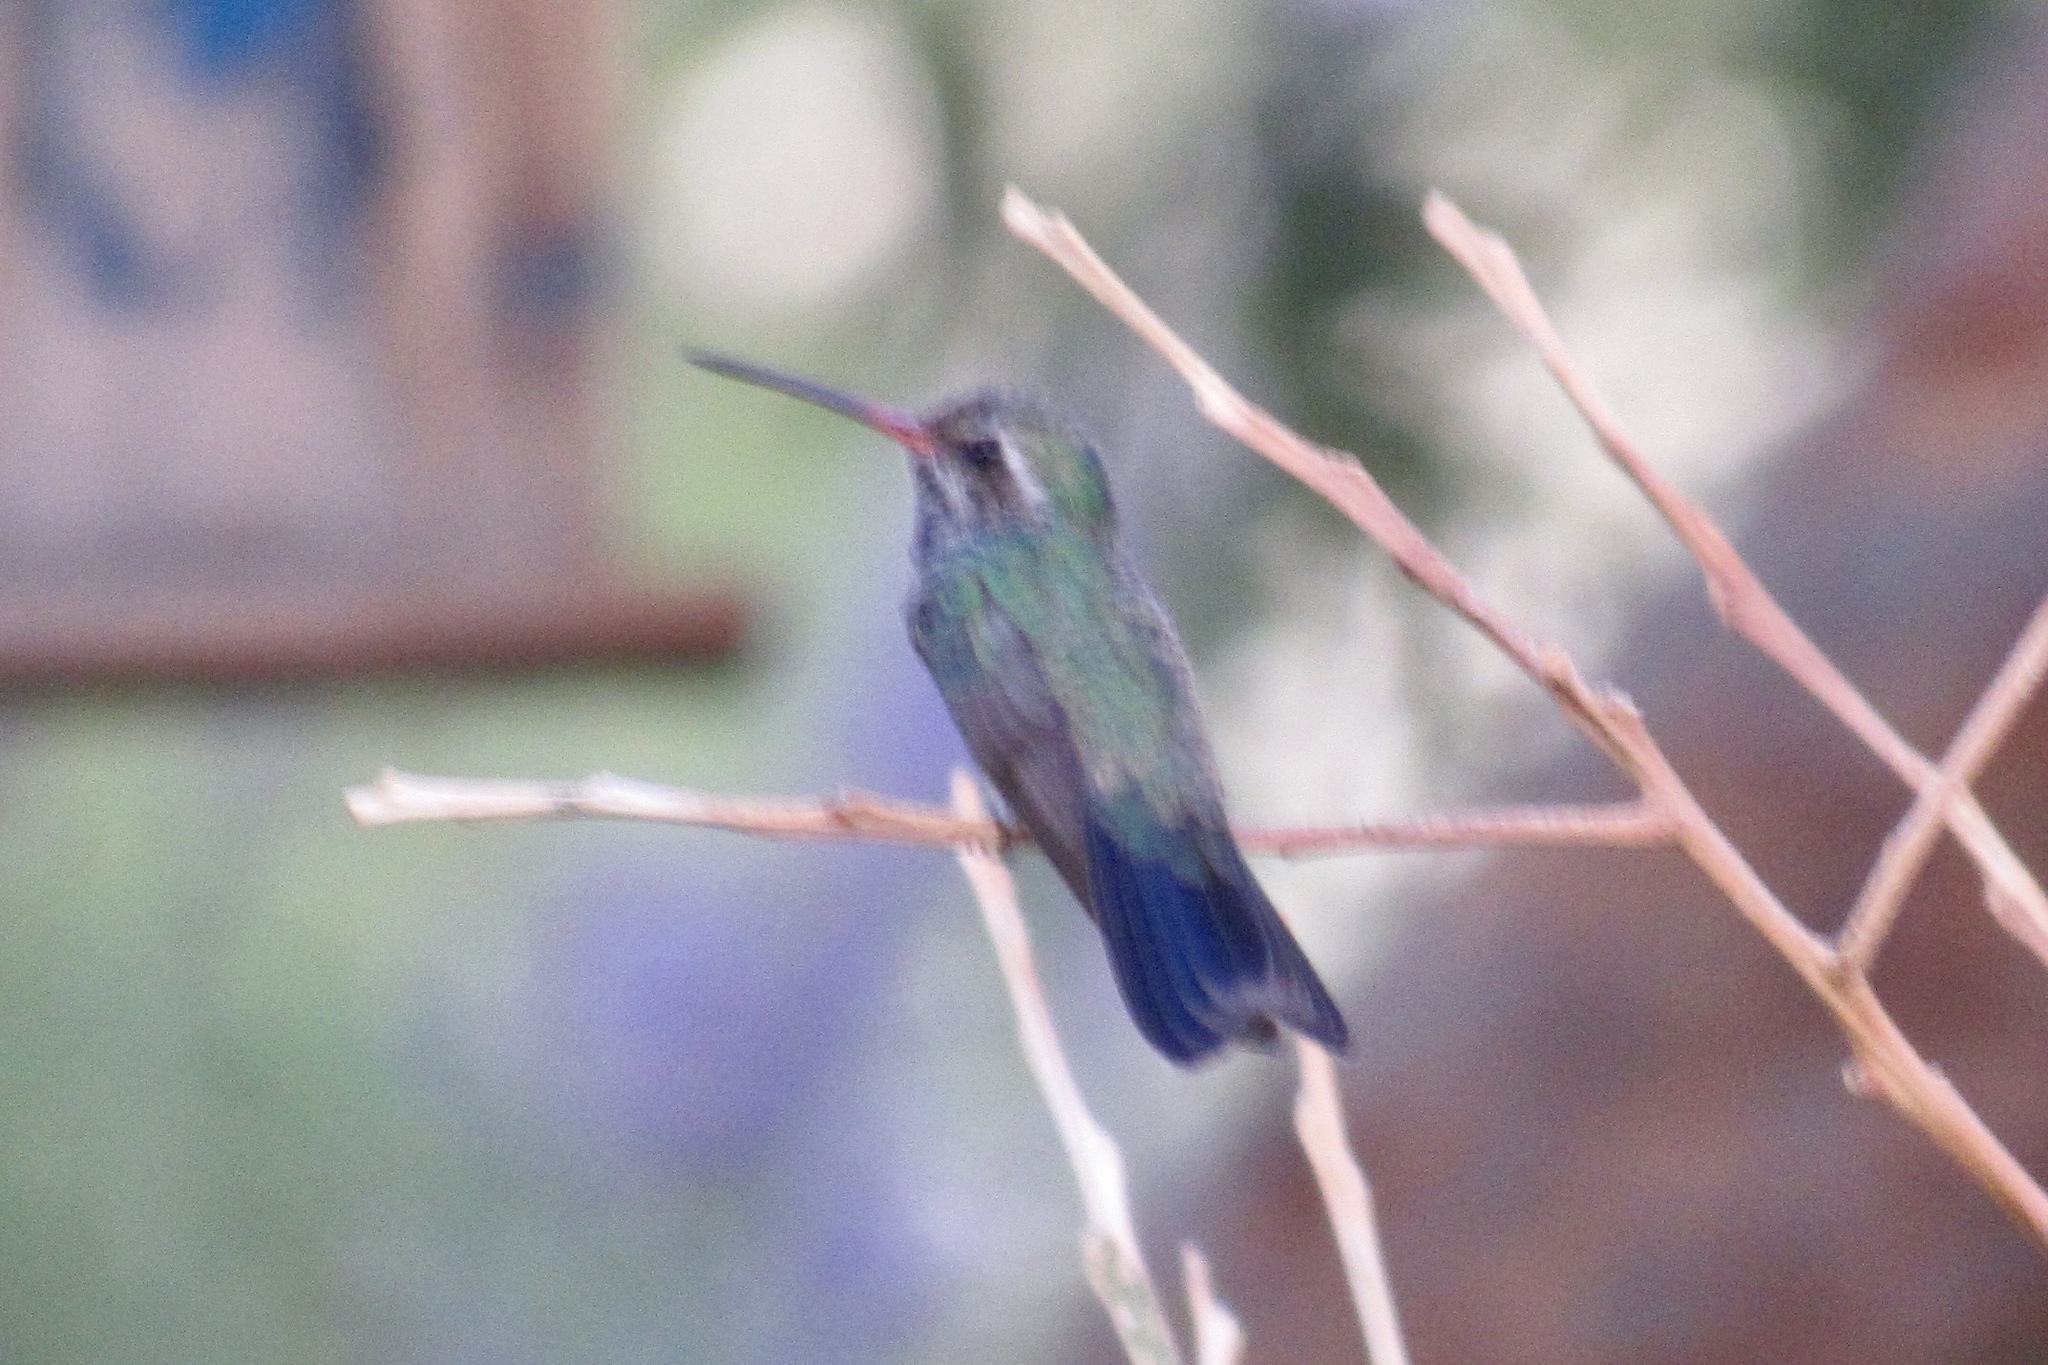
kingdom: Animalia
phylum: Chordata
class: Aves
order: Apodiformes
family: Trochilidae
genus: Cynanthus
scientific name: Cynanthus latirostris
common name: Broad-billed hummingbird
